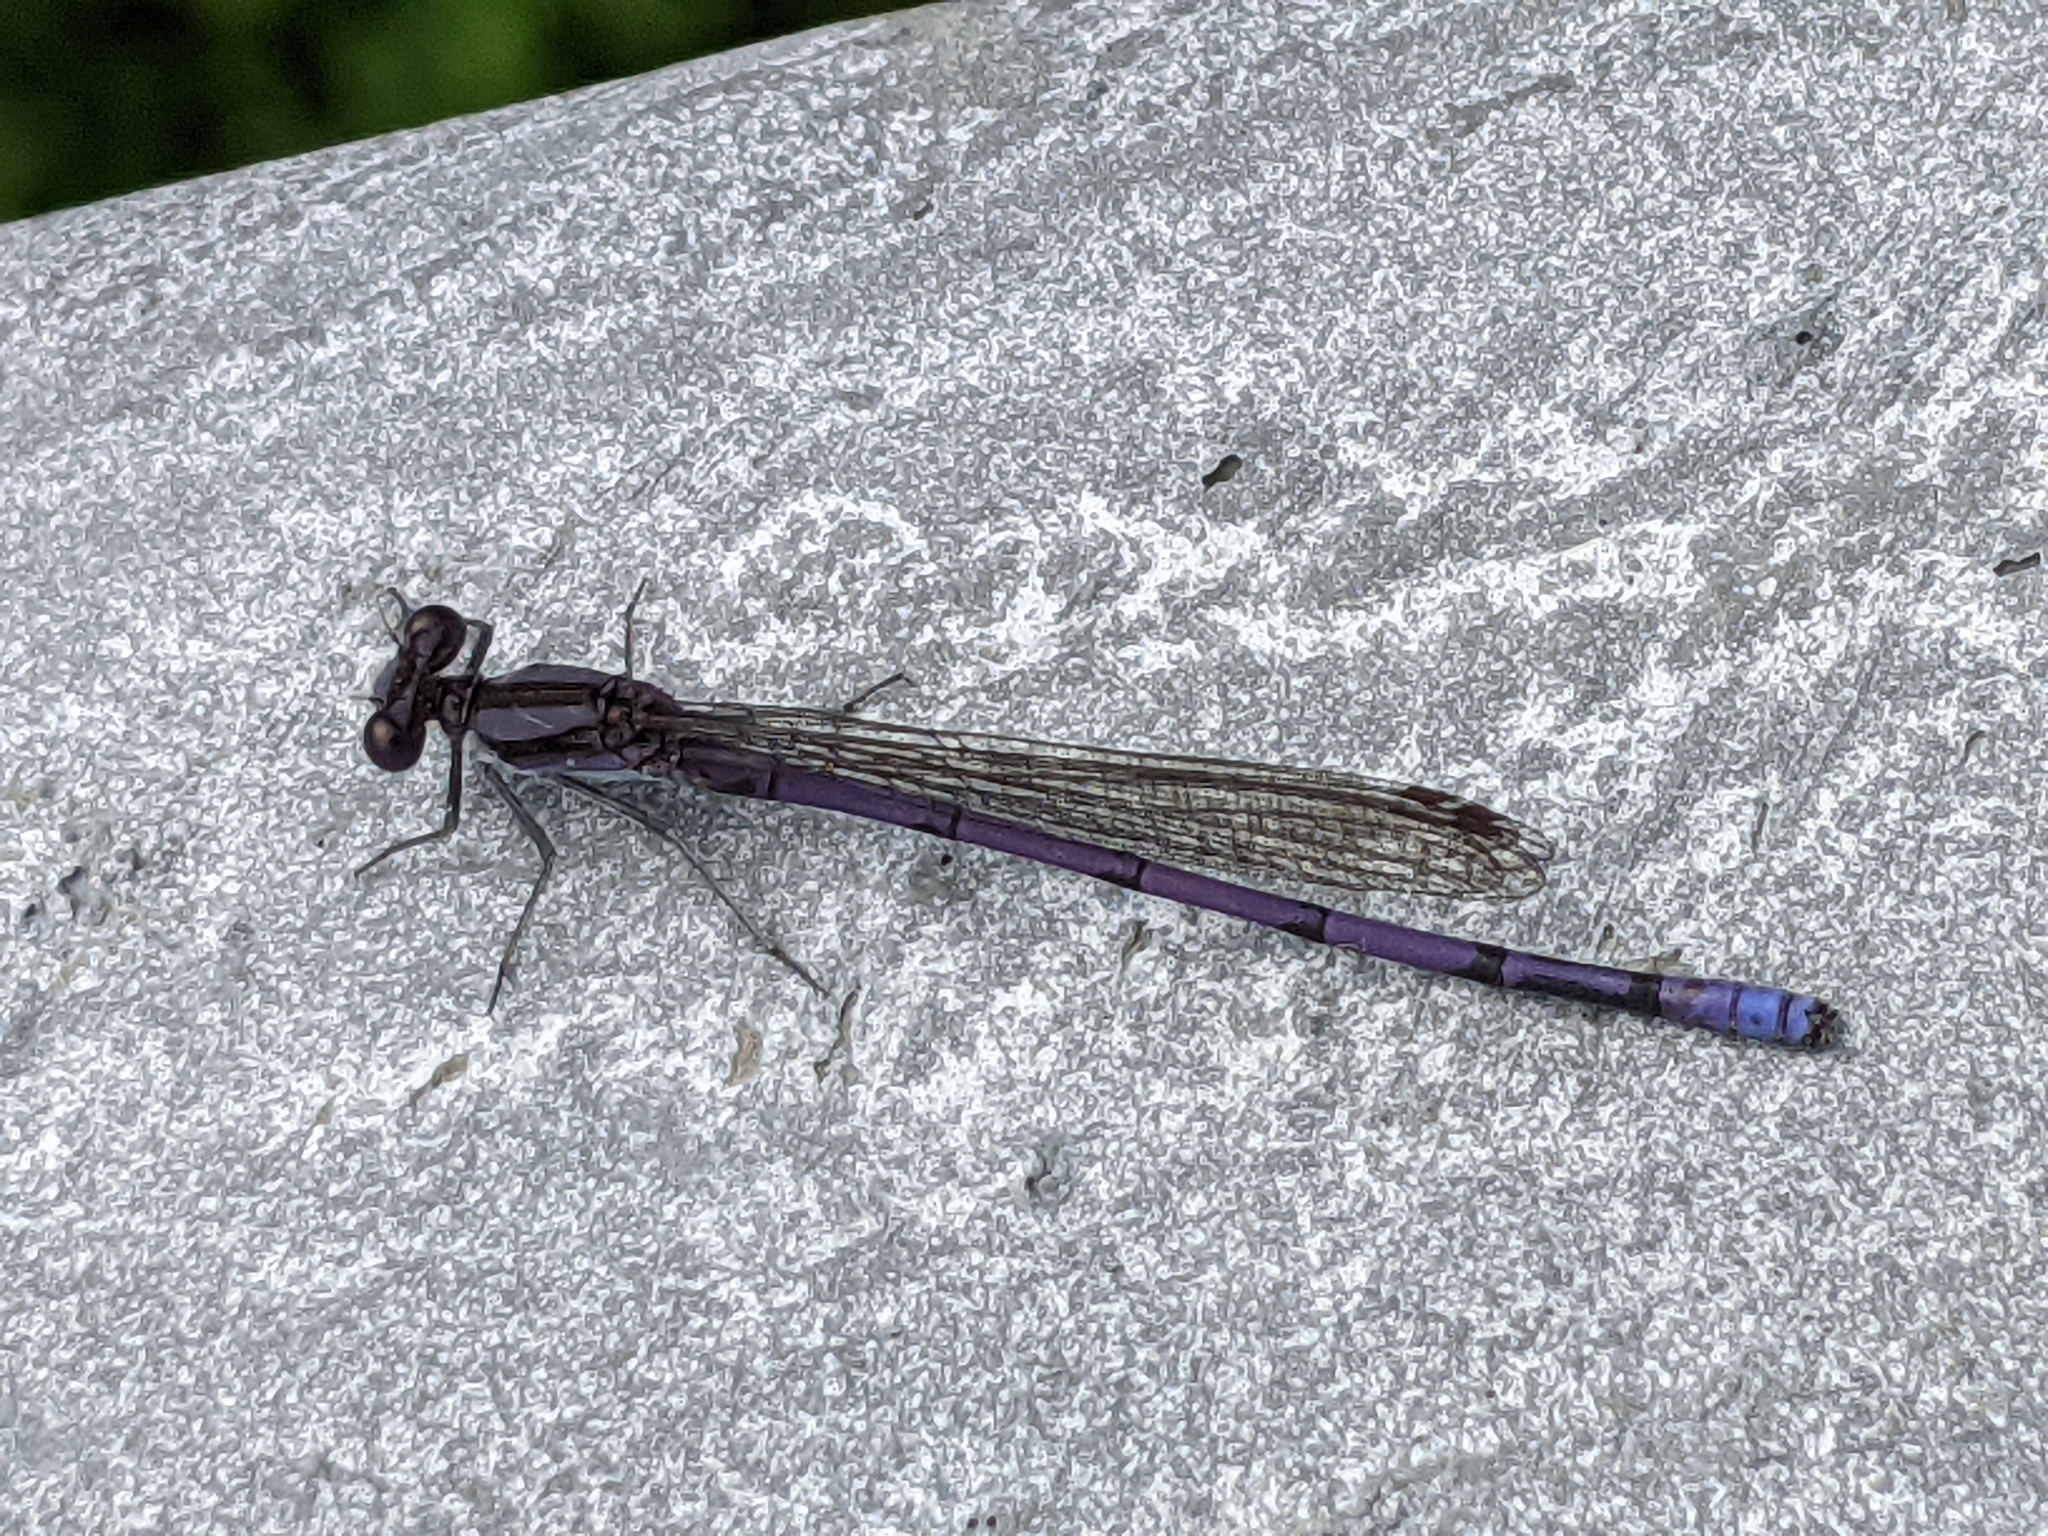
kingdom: Animalia
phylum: Arthropoda
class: Insecta
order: Odonata
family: Coenagrionidae
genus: Argia
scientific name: Argia fumipennis
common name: Variable dancer
